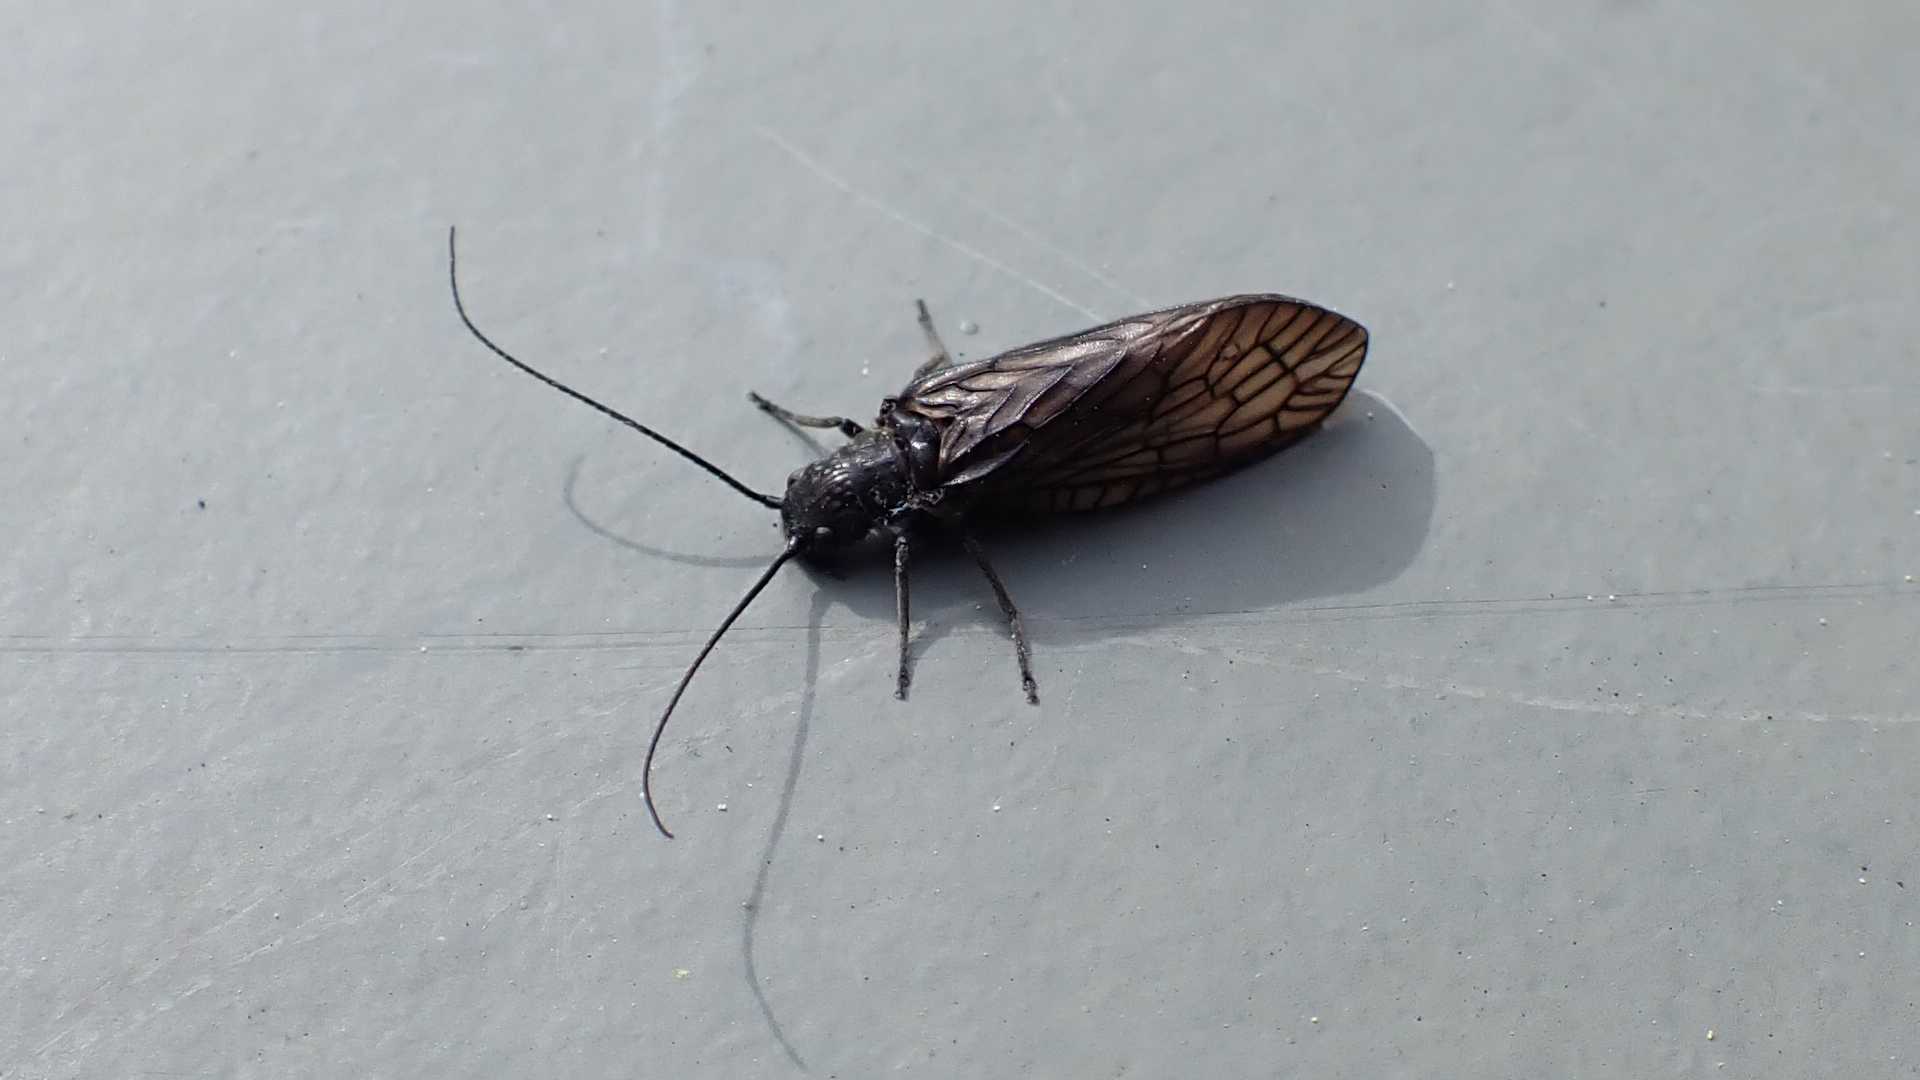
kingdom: Animalia
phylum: Arthropoda
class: Insecta
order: Megaloptera
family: Sialidae
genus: Sialis
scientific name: Sialis
